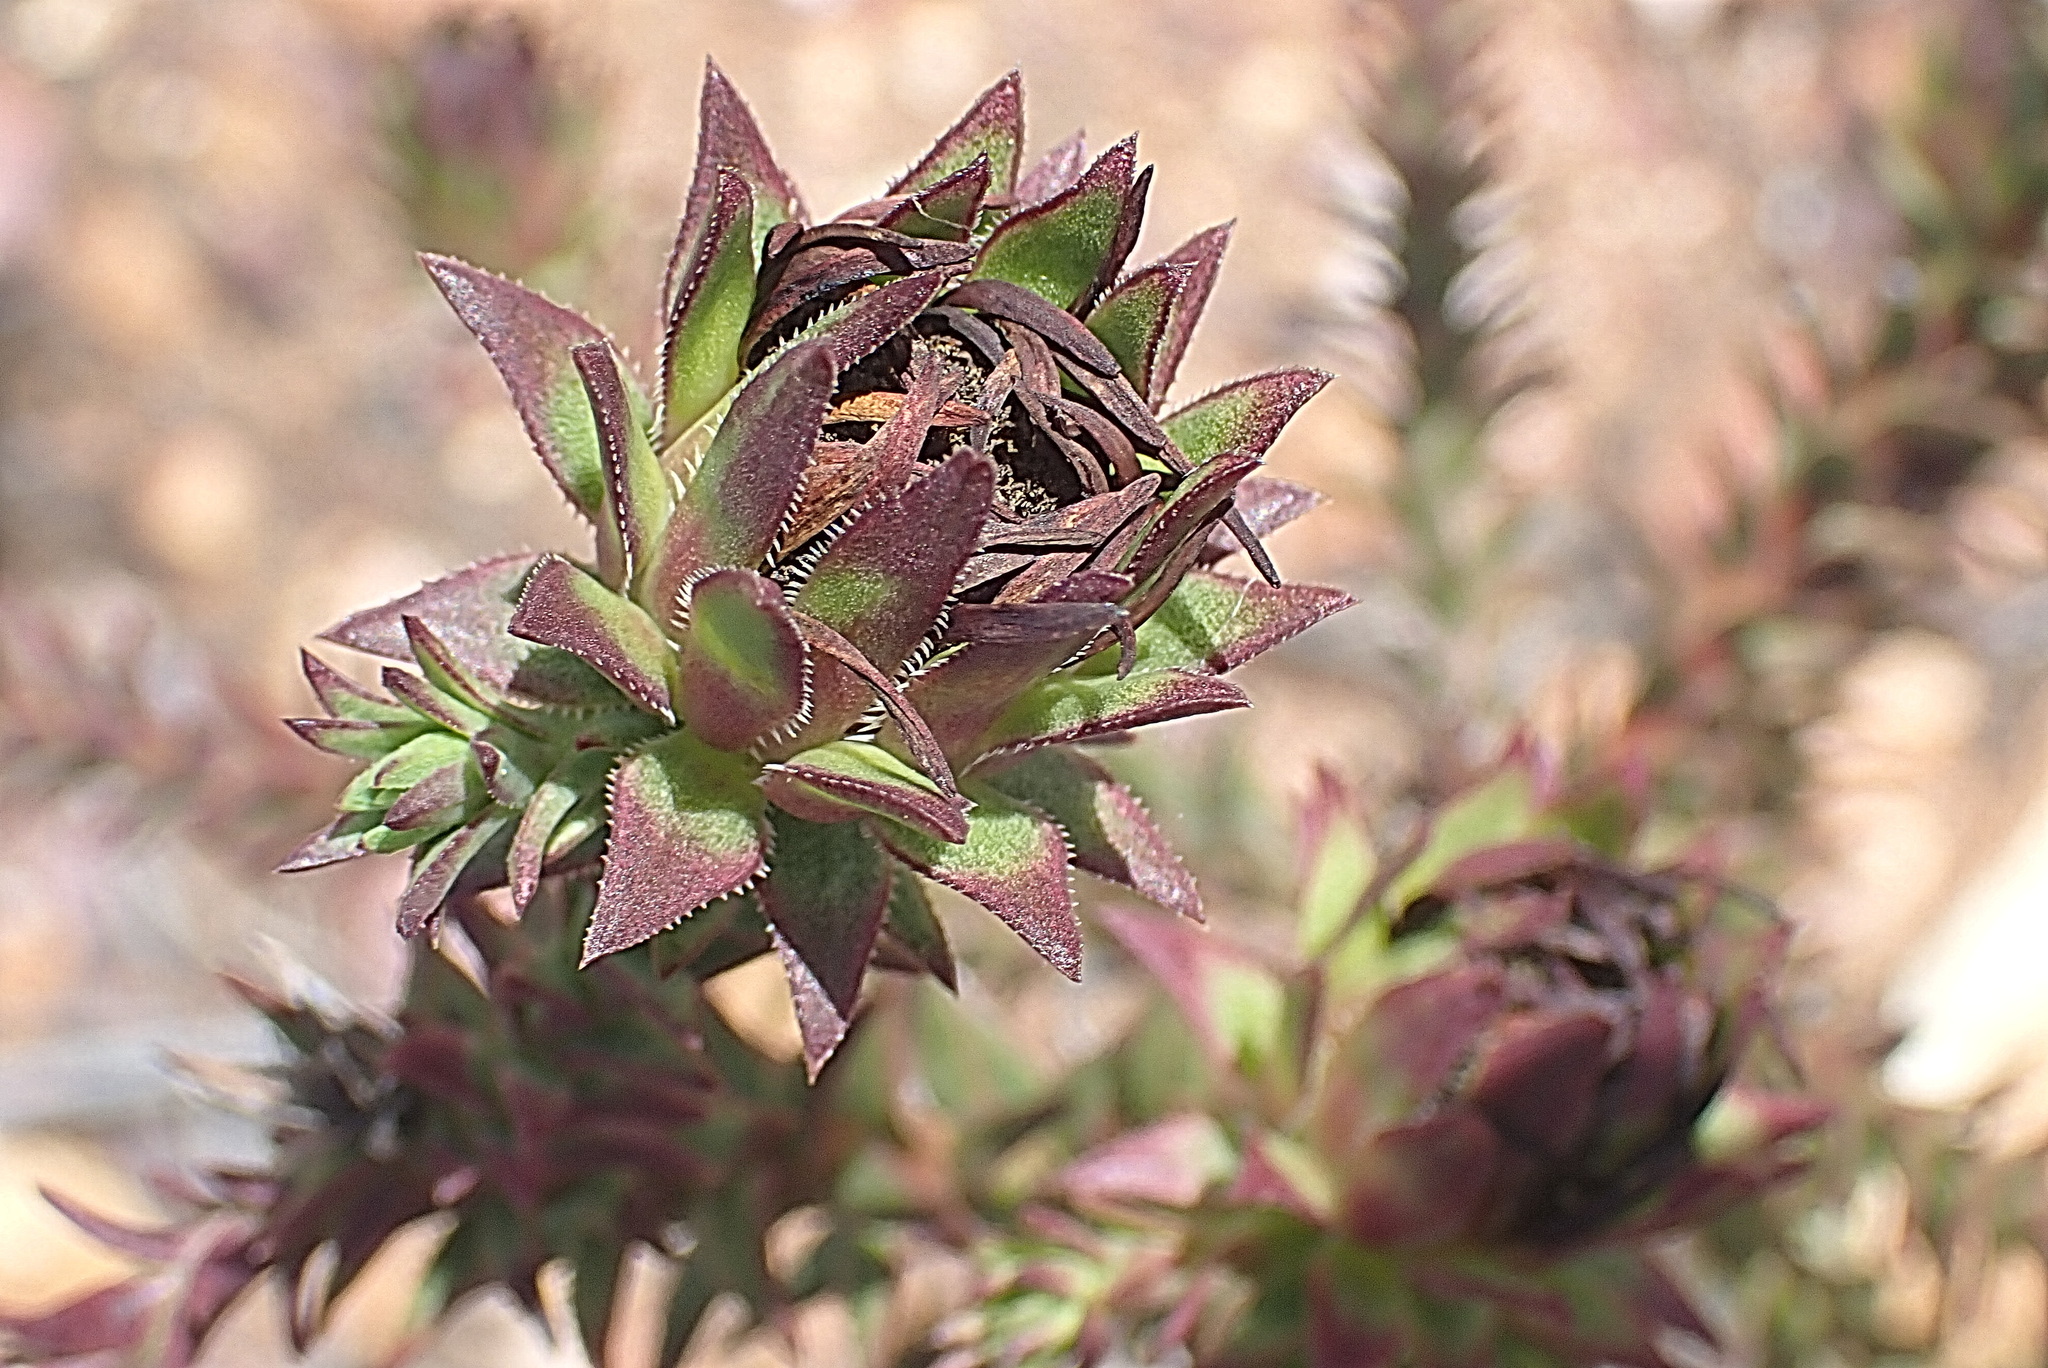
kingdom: Plantae
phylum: Tracheophyta
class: Magnoliopsida
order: Asterales
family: Asteraceae
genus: Oedera
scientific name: Oedera capensis
